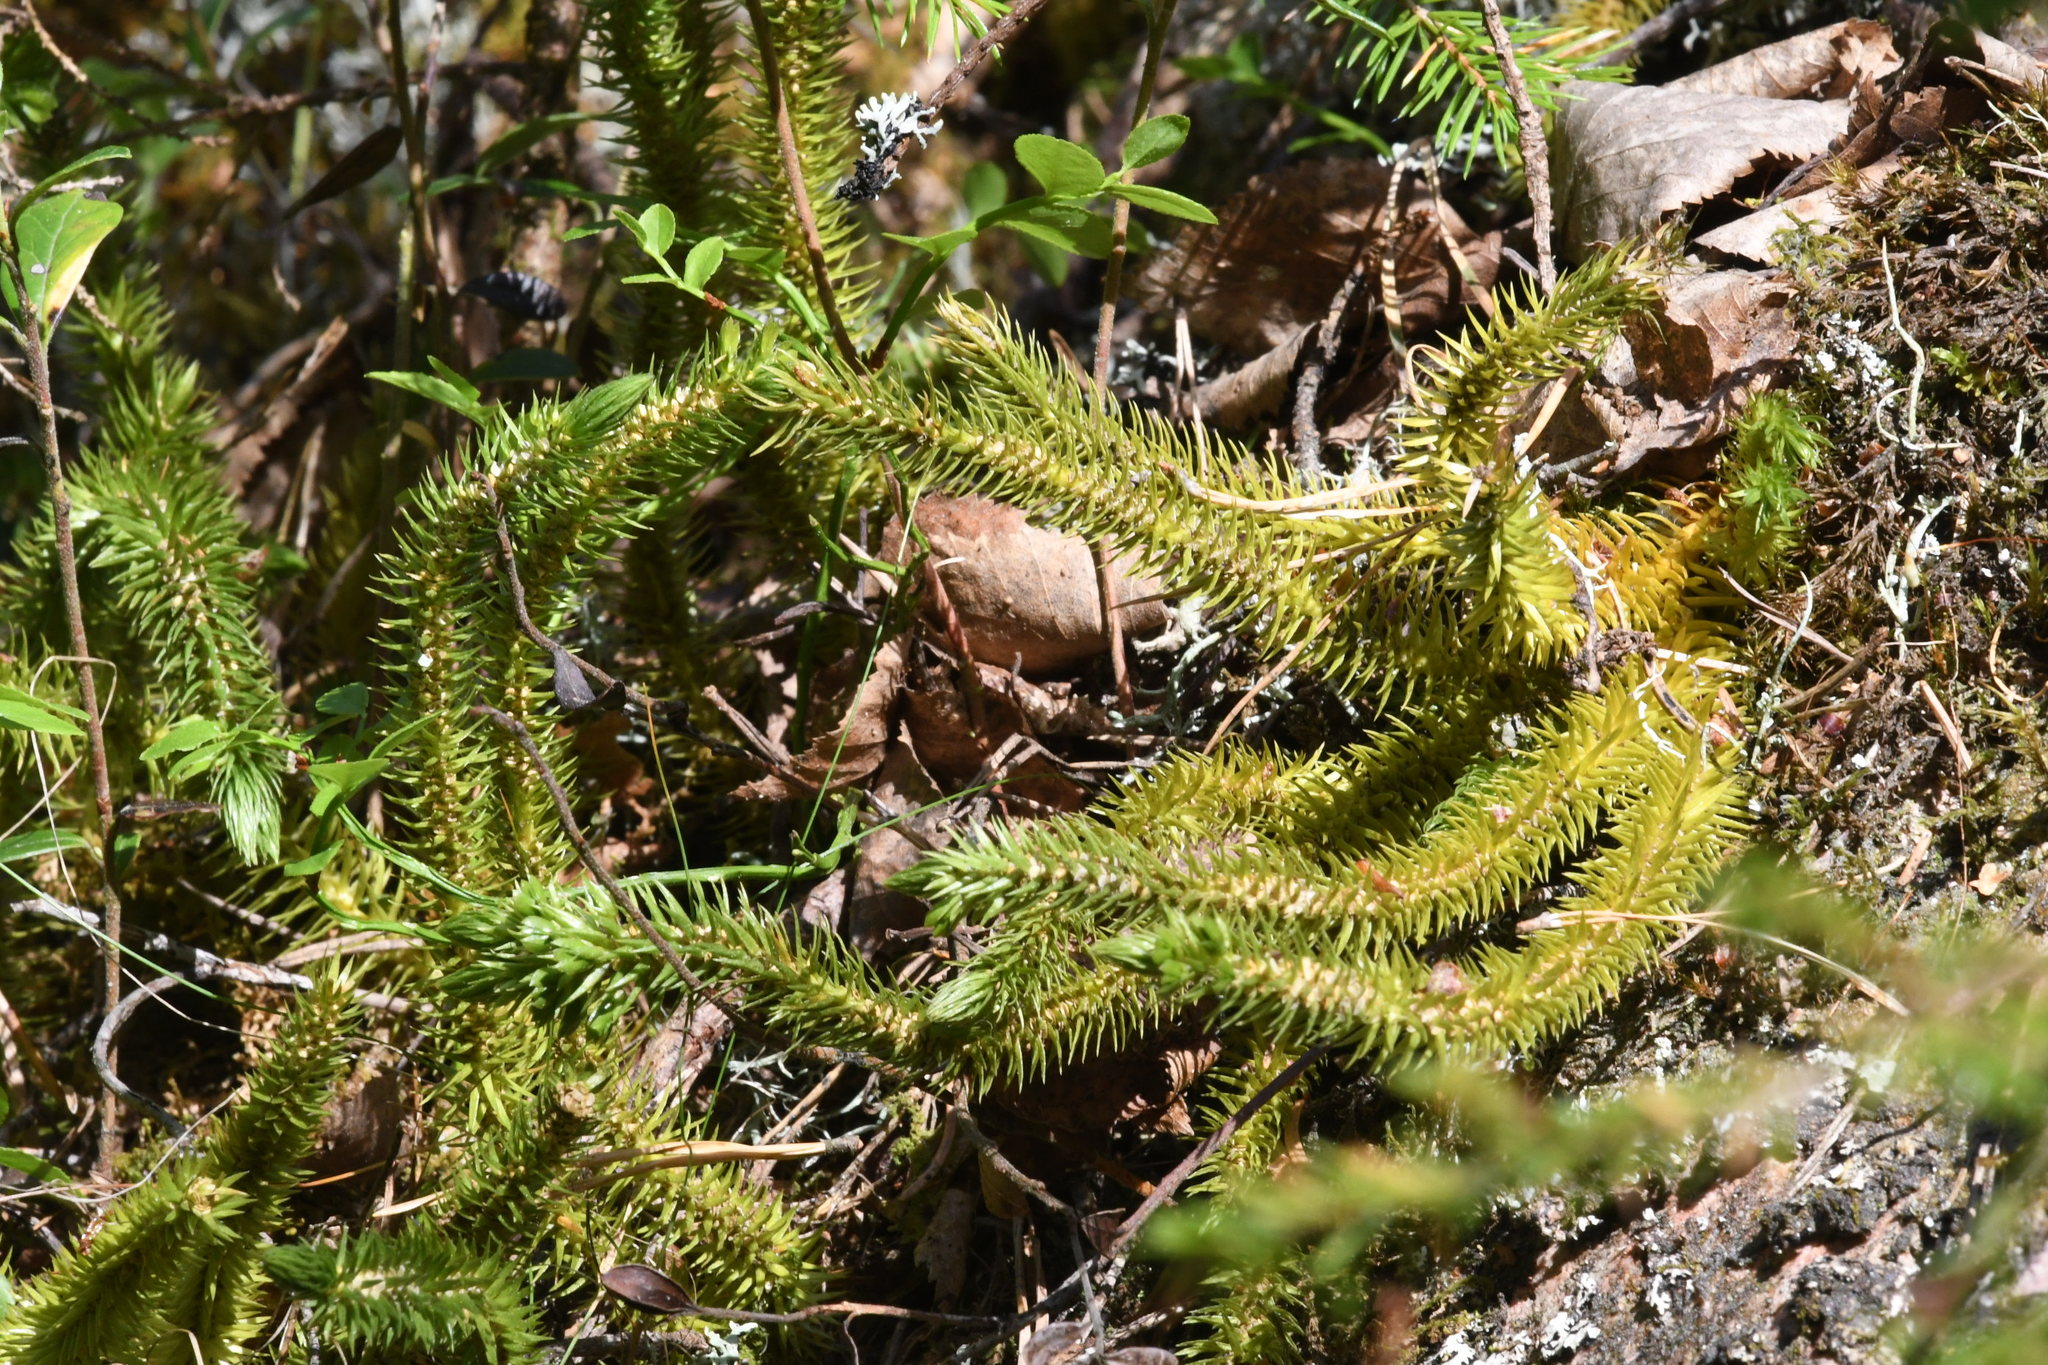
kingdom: Plantae
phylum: Tracheophyta
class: Lycopodiopsida
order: Lycopodiales
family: Lycopodiaceae
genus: Spinulum
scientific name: Spinulum annotinum
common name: Interrupted club-moss
